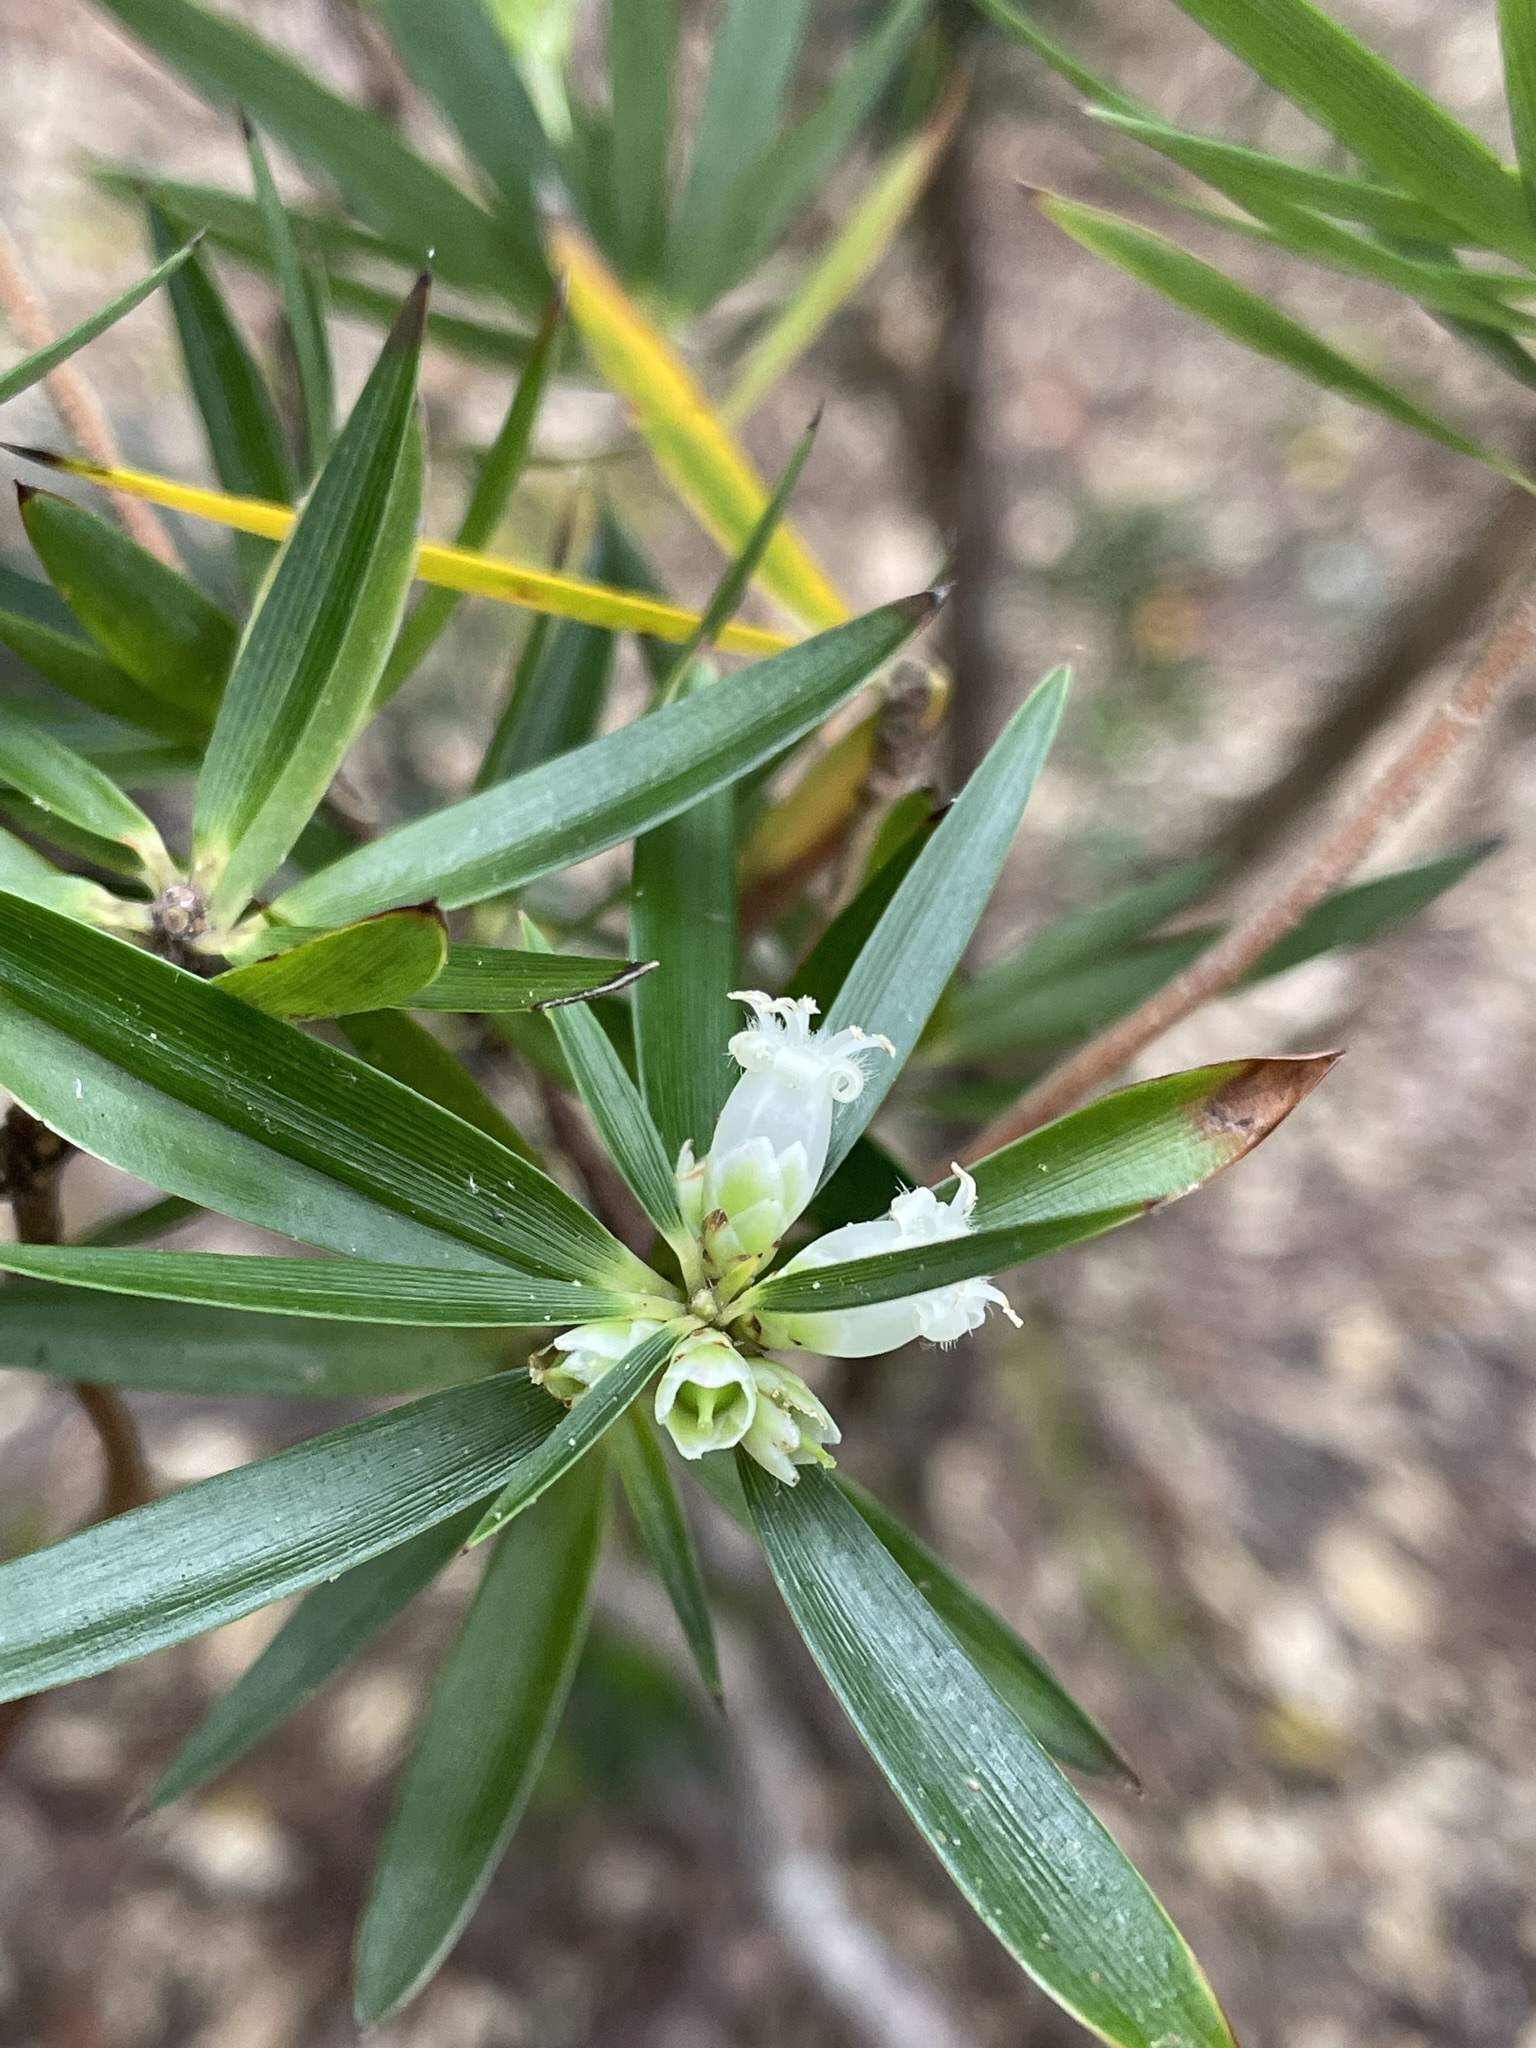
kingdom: Plantae
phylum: Tracheophyta
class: Magnoliopsida
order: Ericales
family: Ericaceae
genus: Cyathodes
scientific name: Cyathodes platystoma
